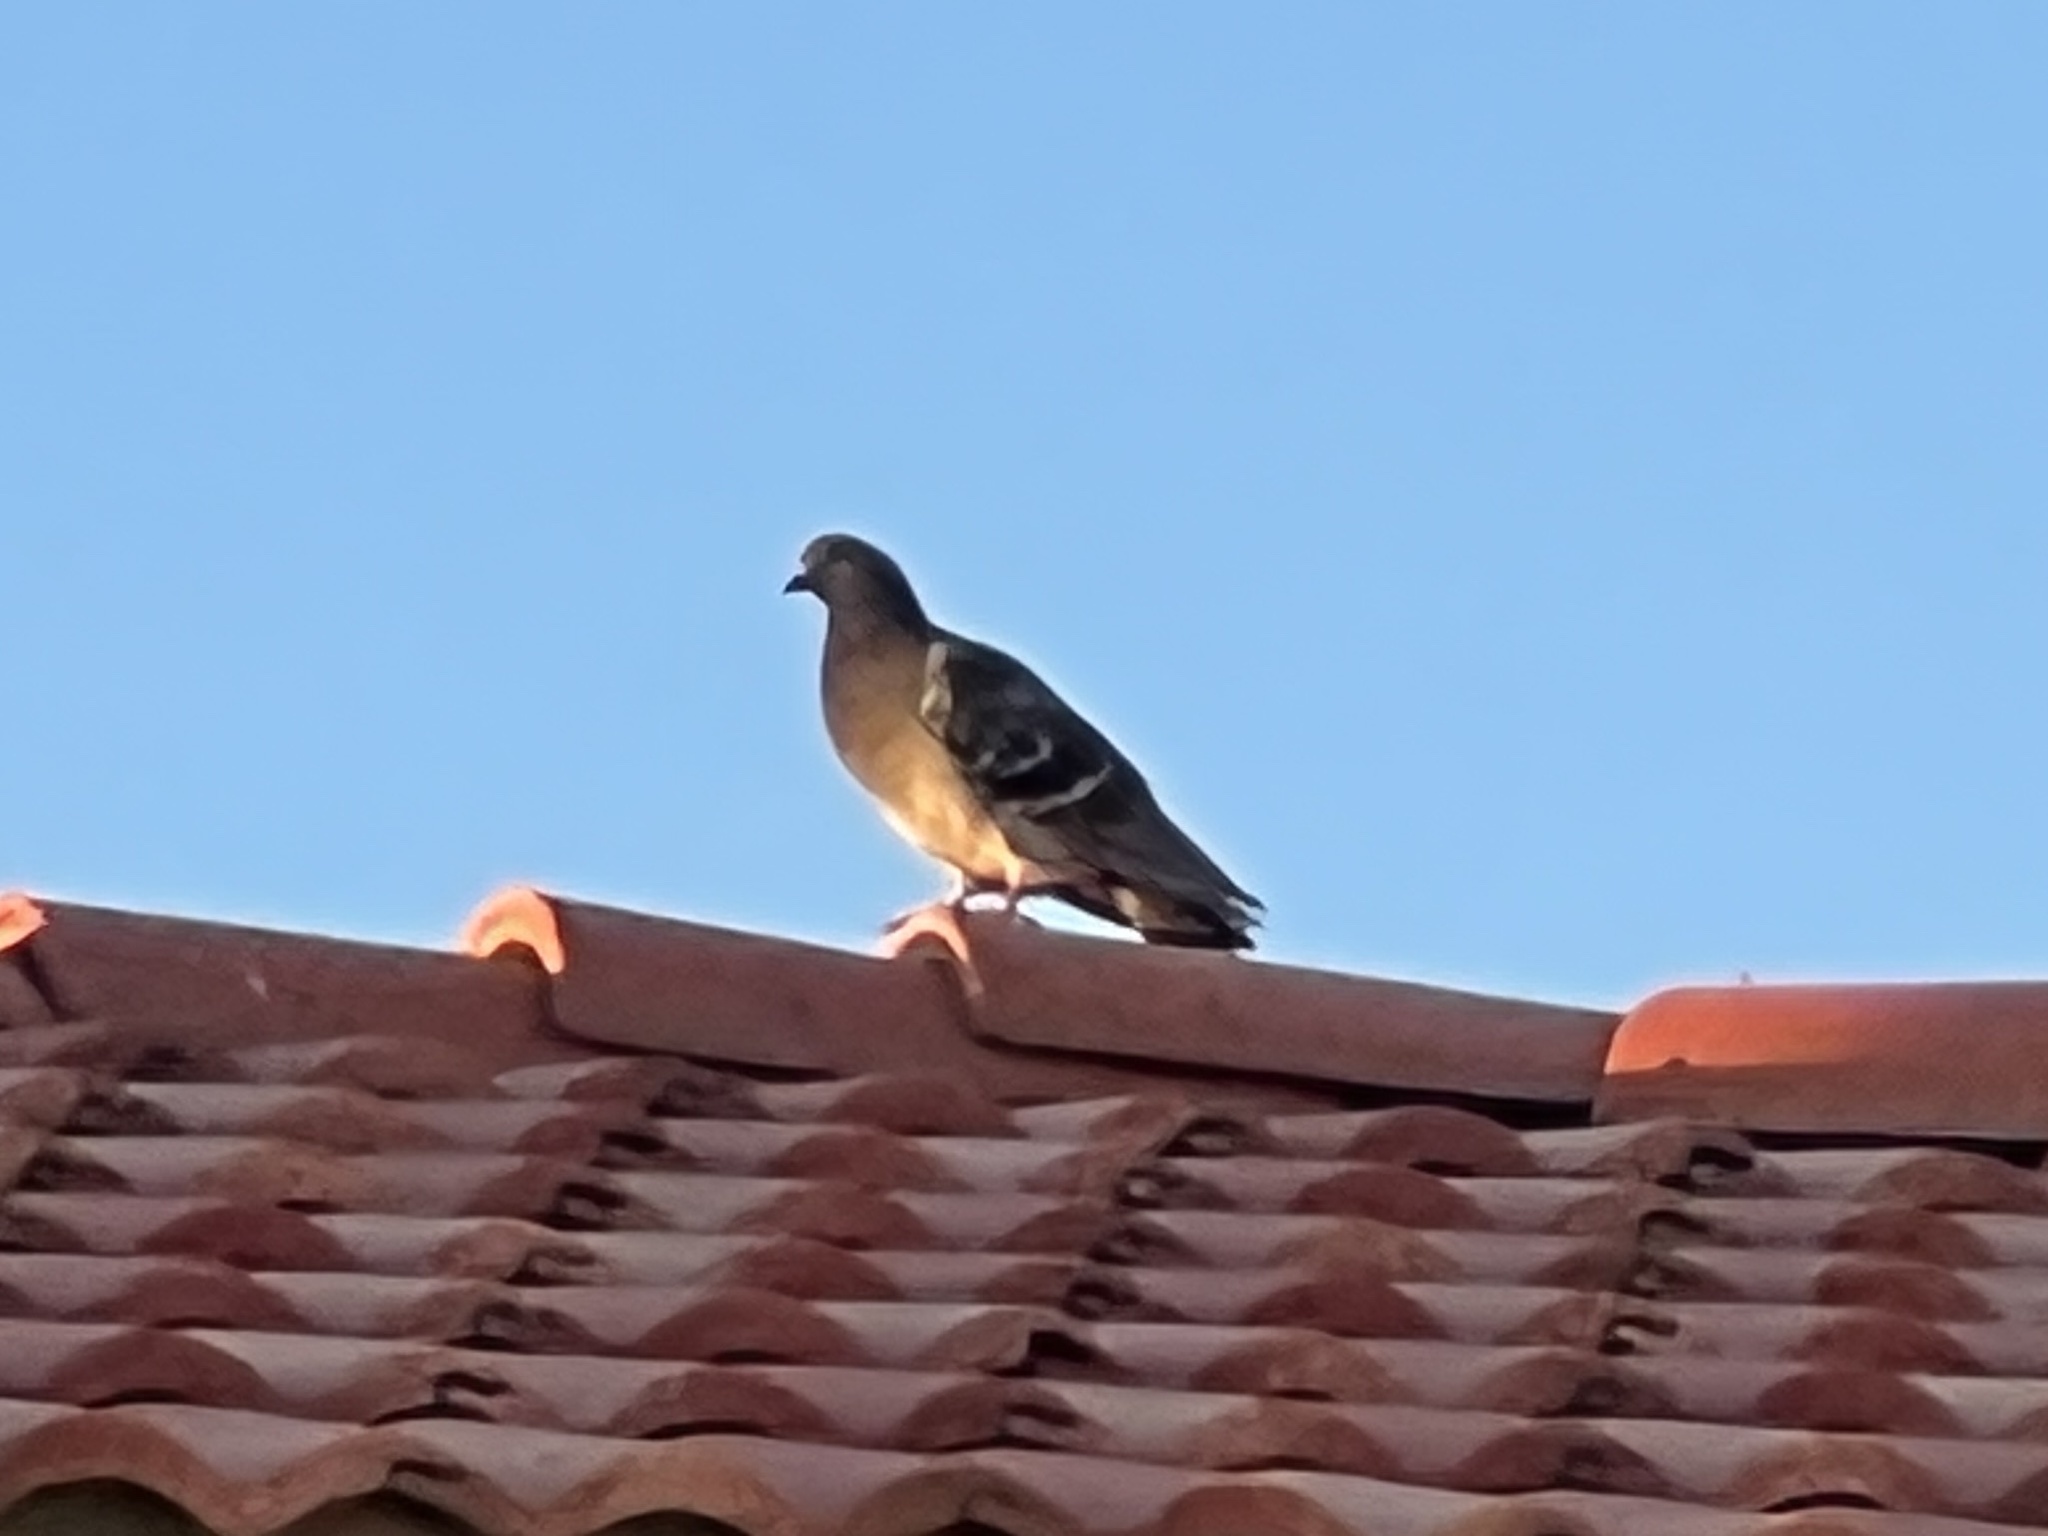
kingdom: Animalia
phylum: Chordata
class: Aves
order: Columbiformes
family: Columbidae
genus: Columba
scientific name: Columba livia
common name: Rock pigeon
